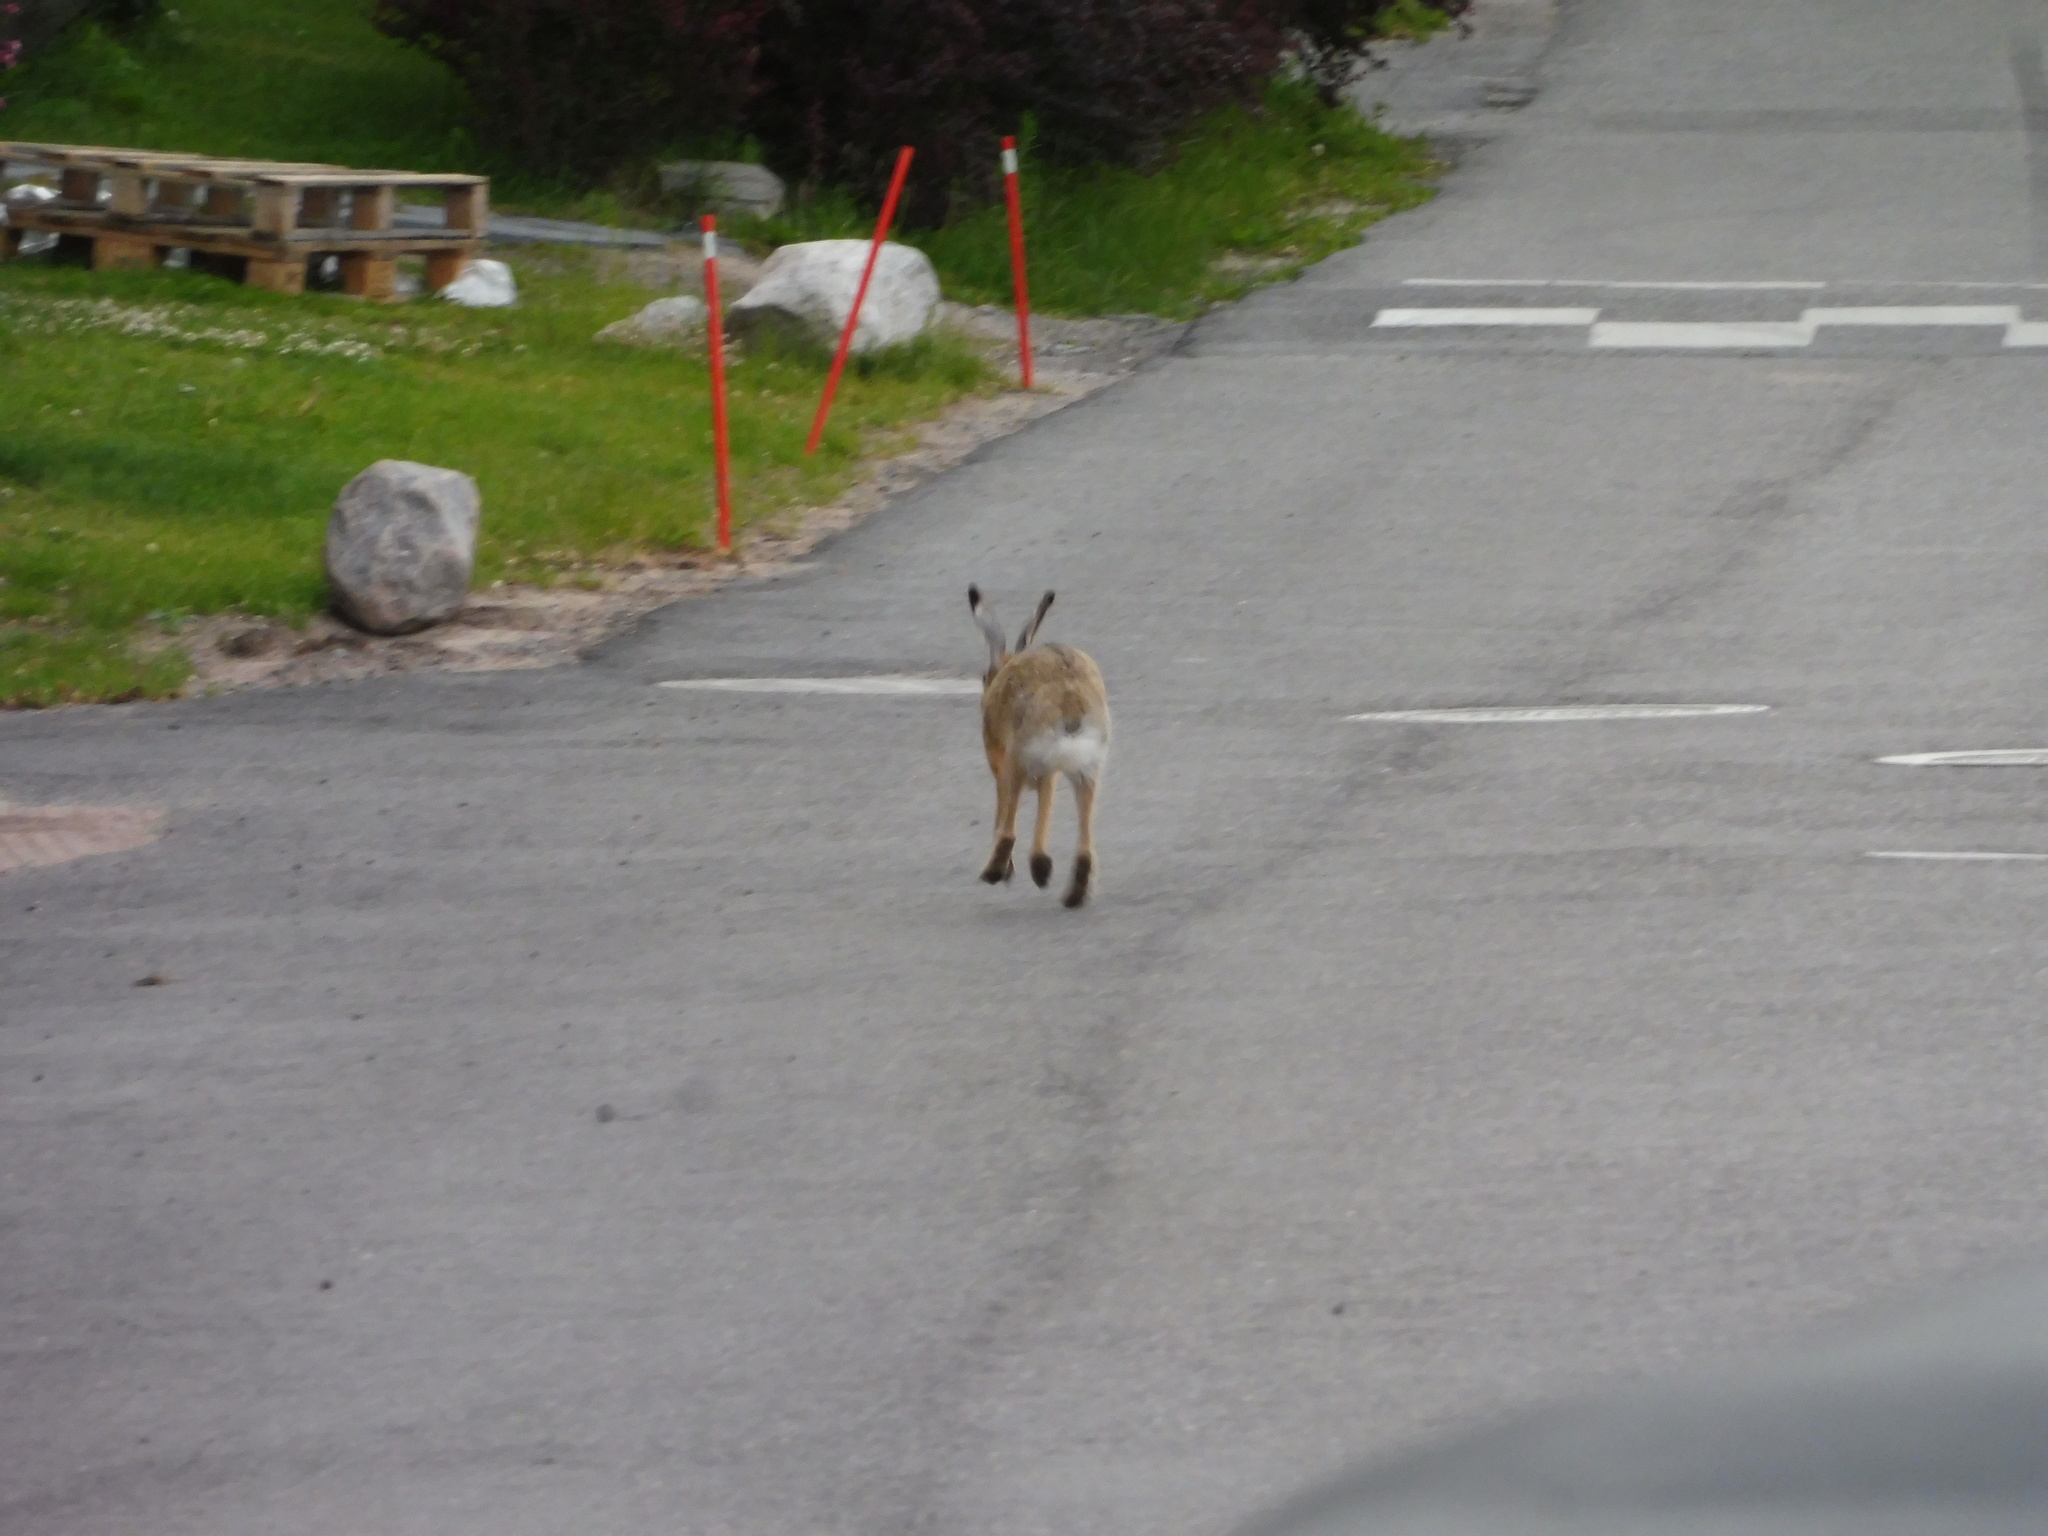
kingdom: Animalia
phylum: Chordata
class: Mammalia
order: Lagomorpha
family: Leporidae
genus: Lepus
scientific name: Lepus europaeus
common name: European hare
